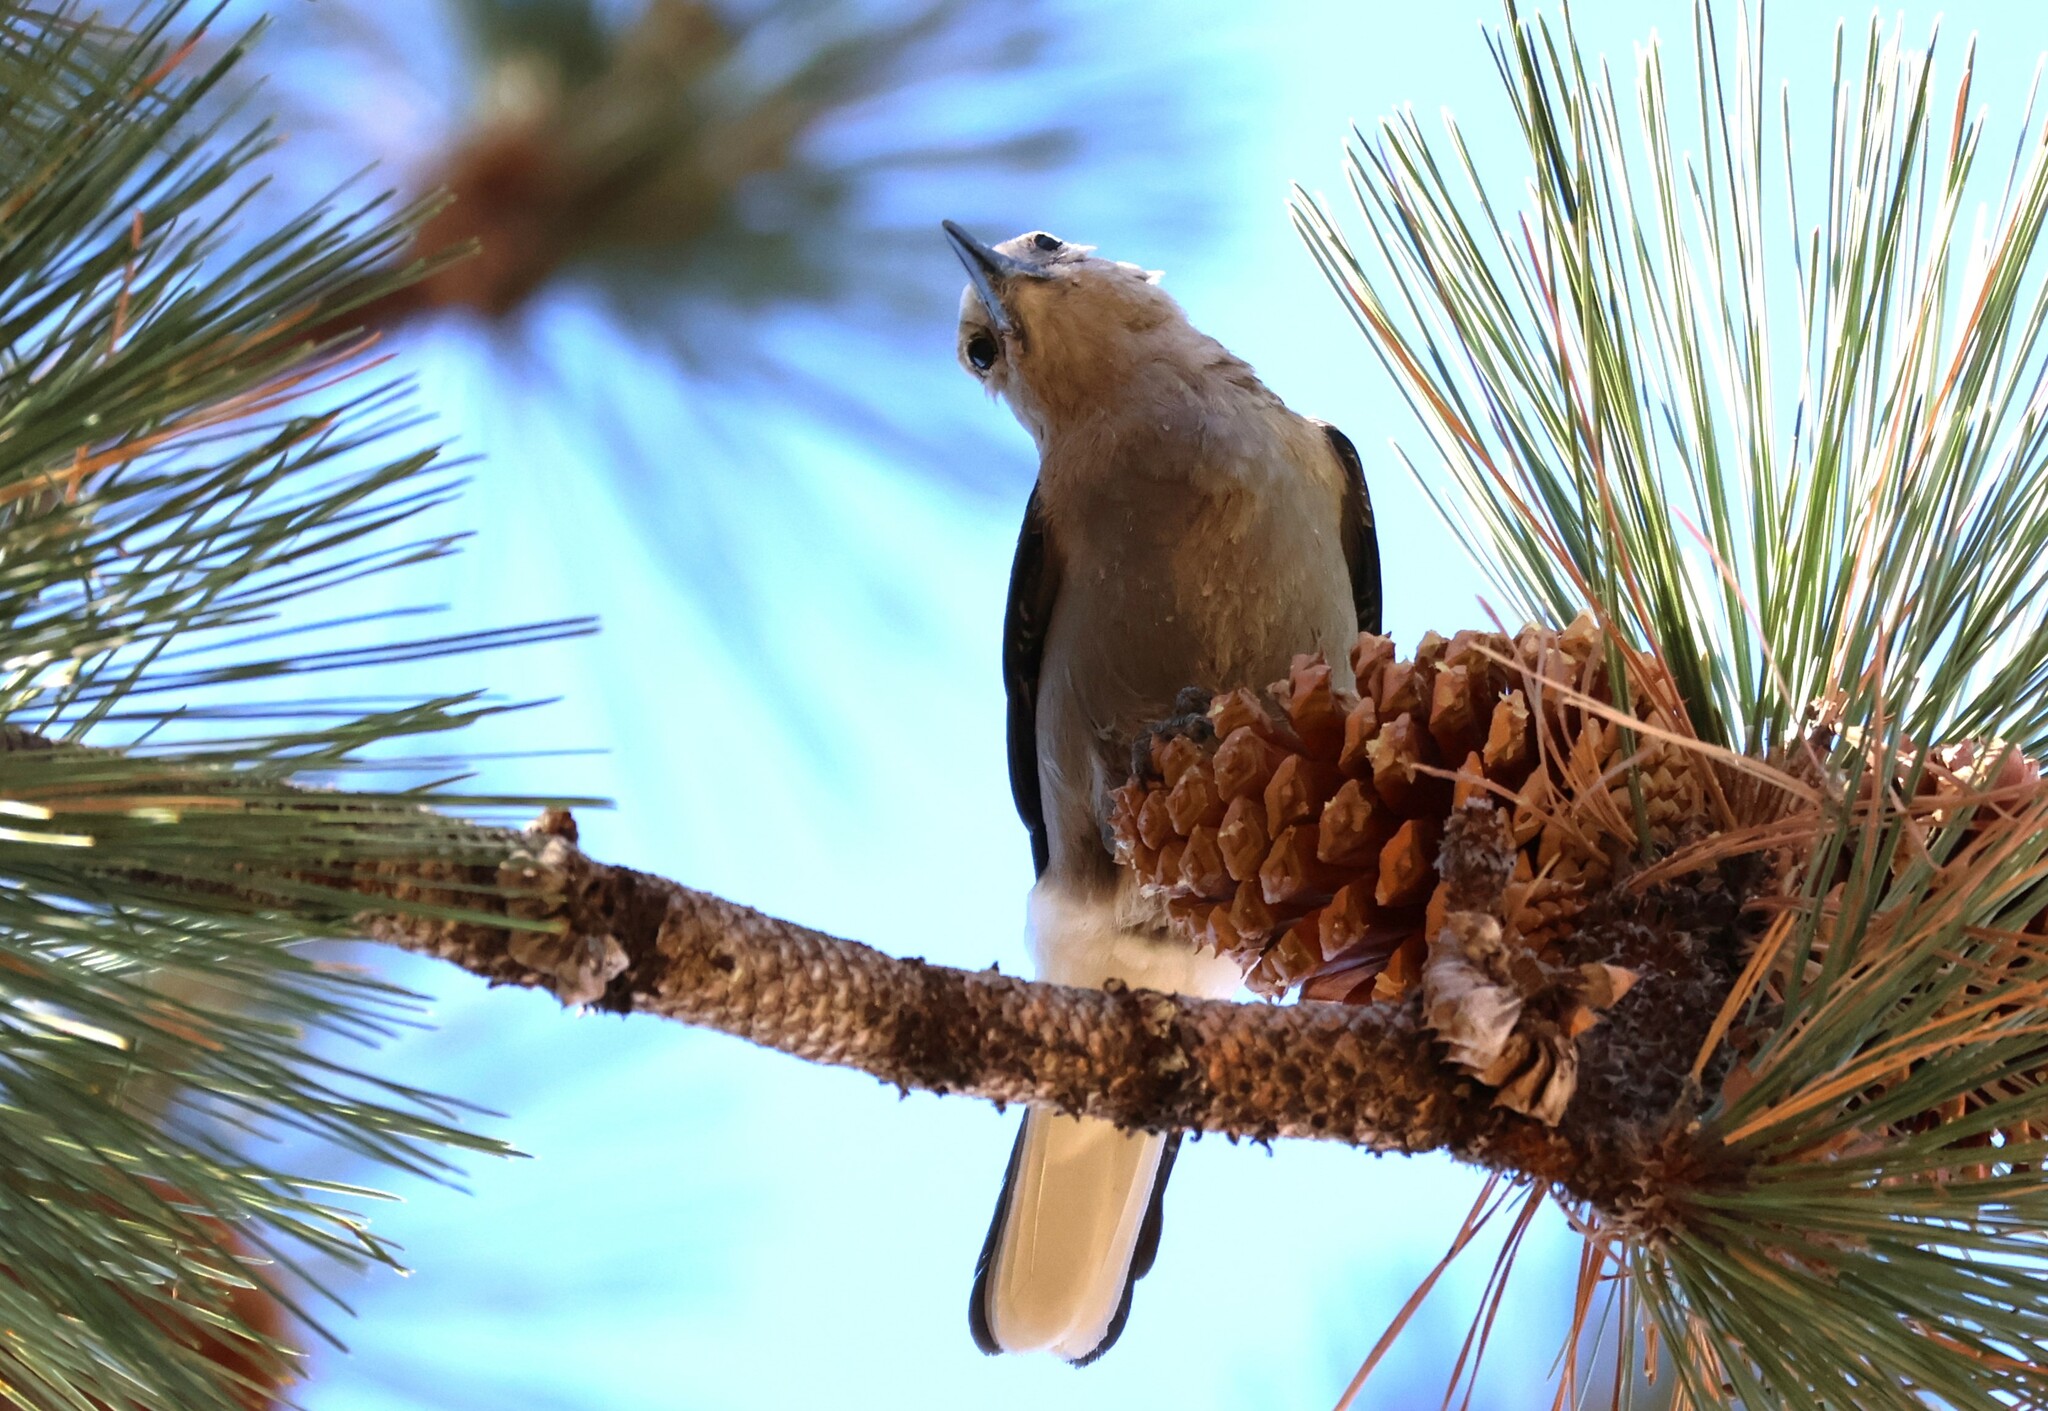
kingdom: Animalia
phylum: Chordata
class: Aves
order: Passeriformes
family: Corvidae
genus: Nucifraga
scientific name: Nucifraga columbiana
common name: Clark's nutcracker
